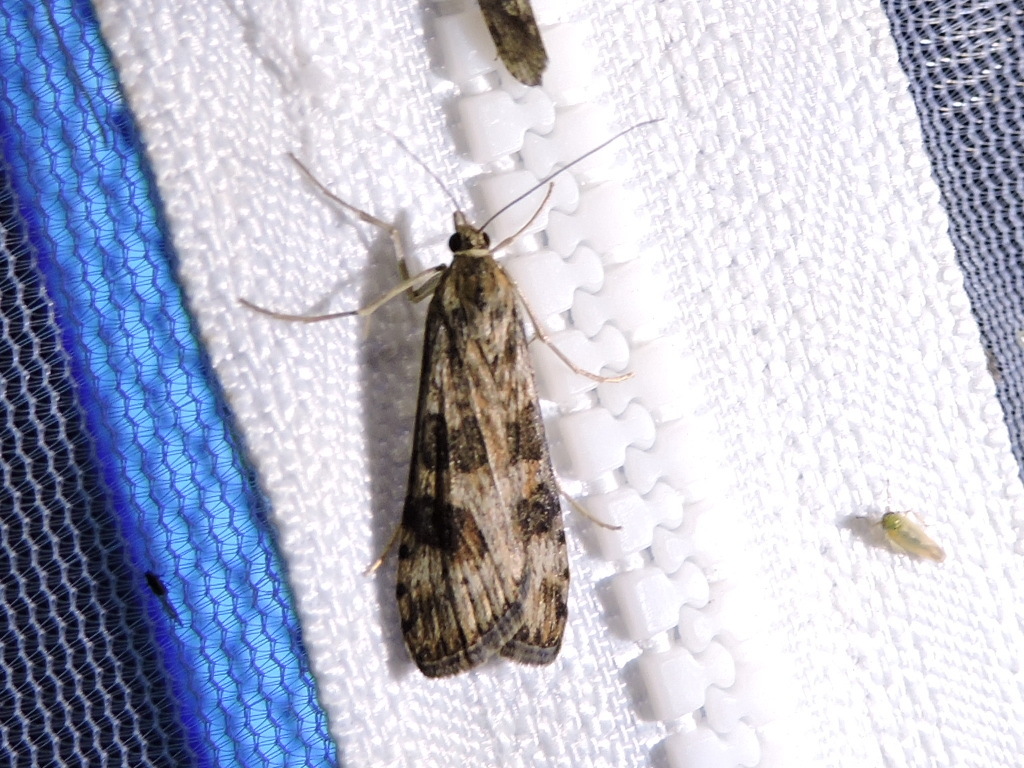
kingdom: Animalia
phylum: Arthropoda
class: Insecta
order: Lepidoptera
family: Crambidae
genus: Nomophila
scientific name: Nomophila nearctica
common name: American rush veneer
